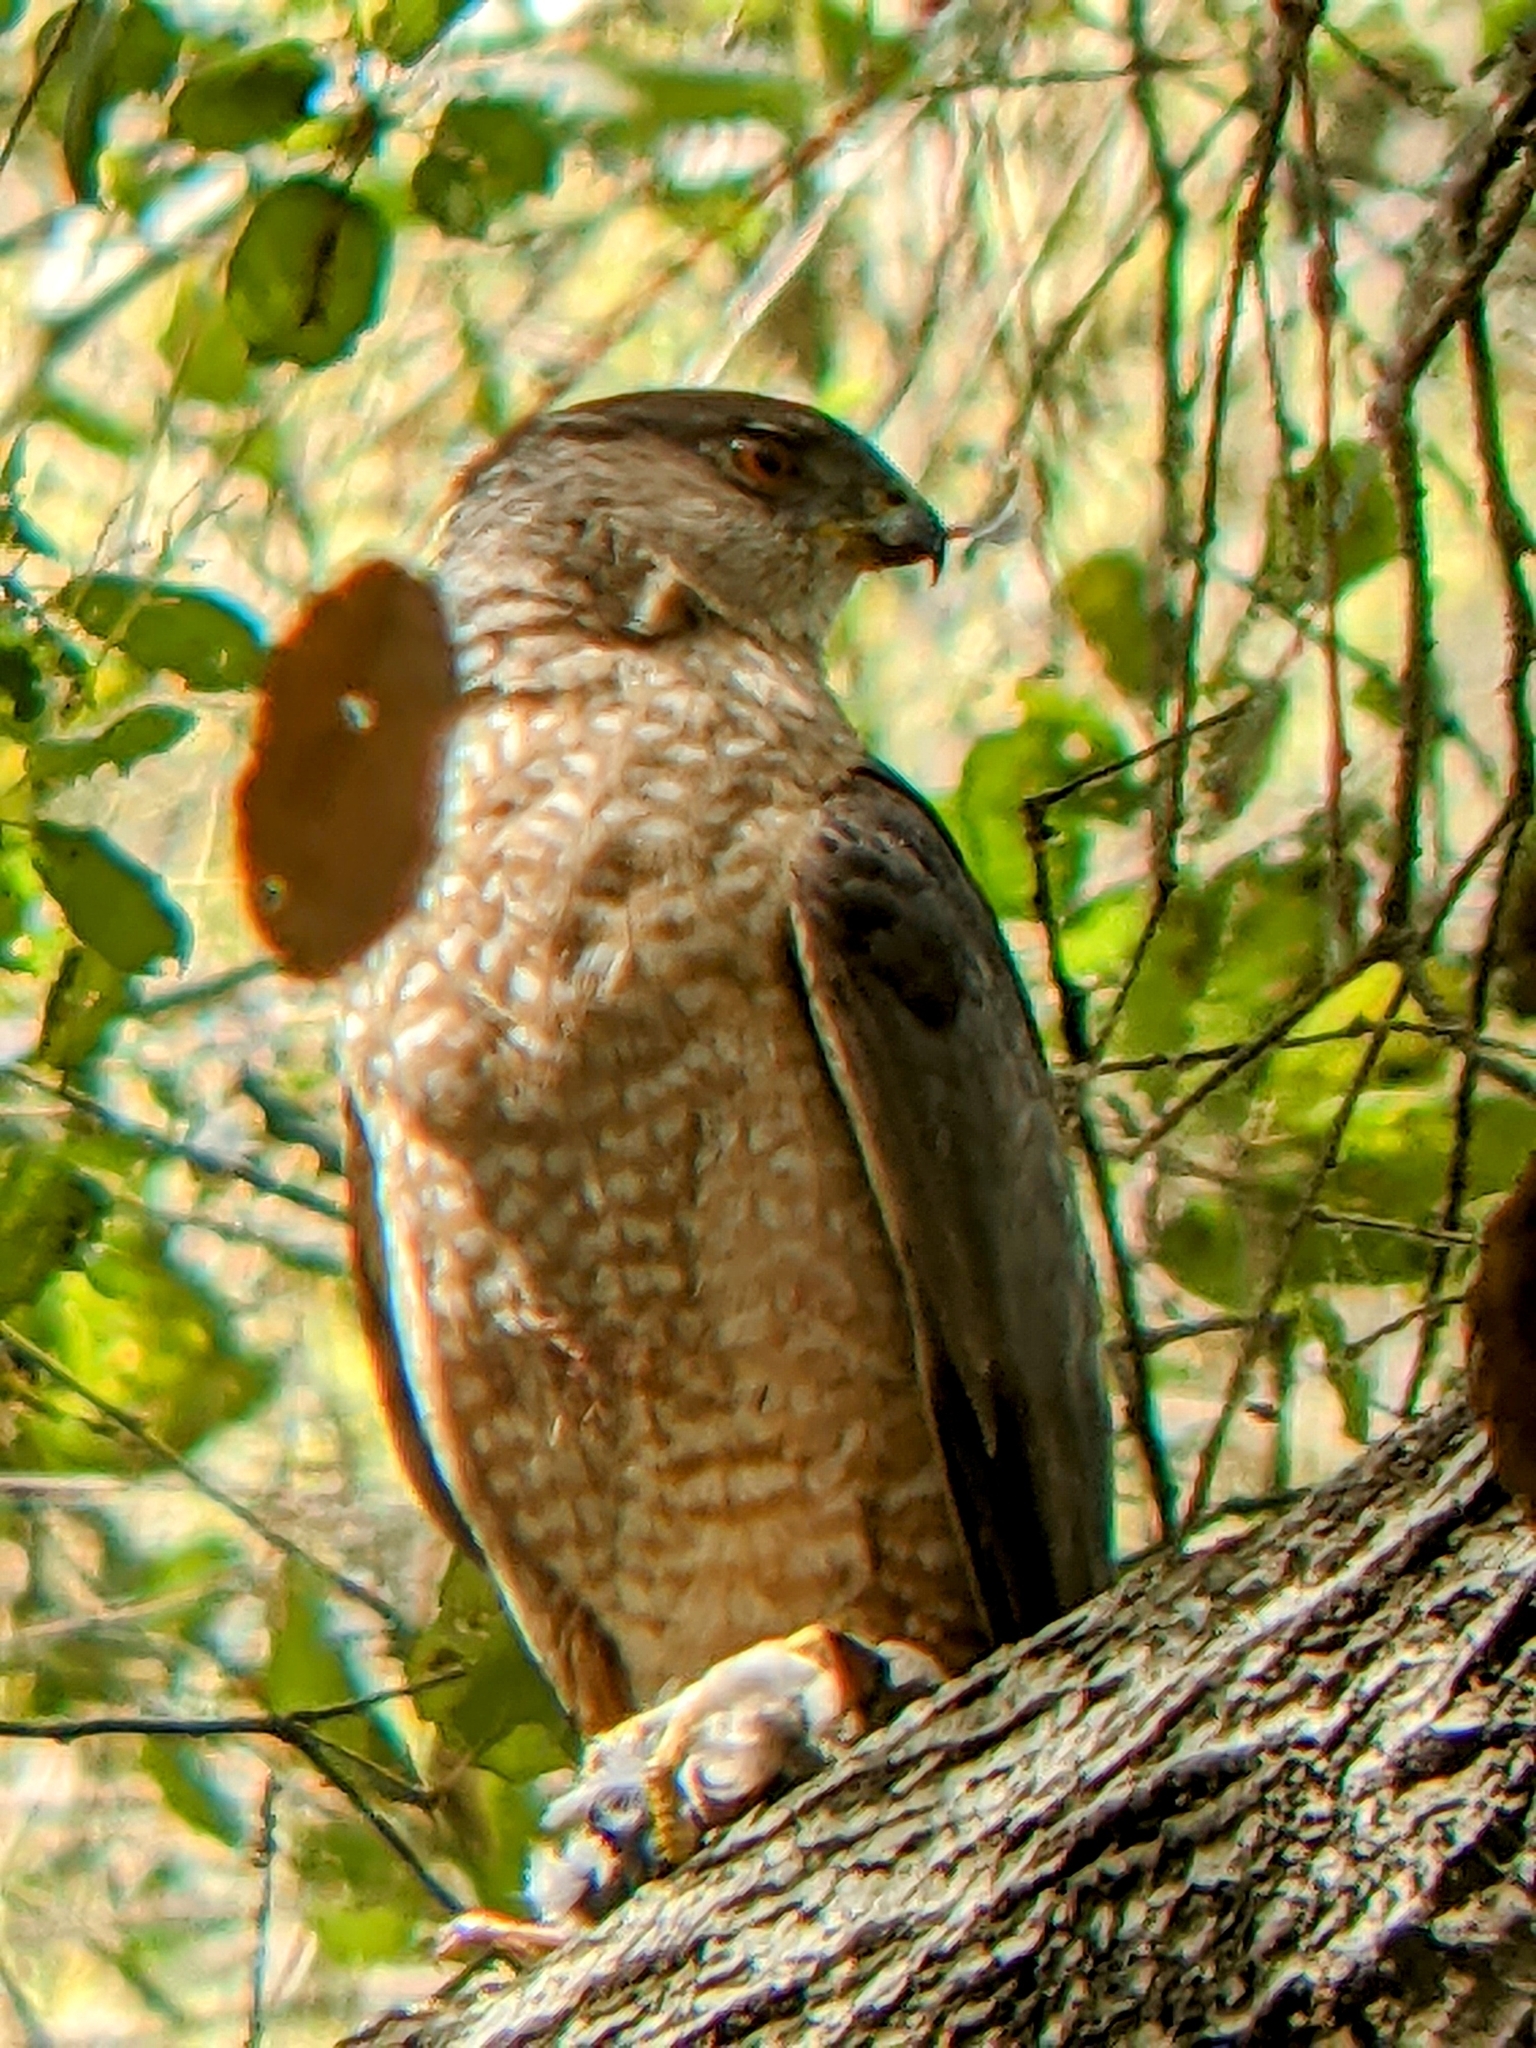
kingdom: Animalia
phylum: Chordata
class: Aves
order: Accipitriformes
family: Accipitridae
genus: Accipiter
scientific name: Accipiter cooperii
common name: Cooper's hawk
